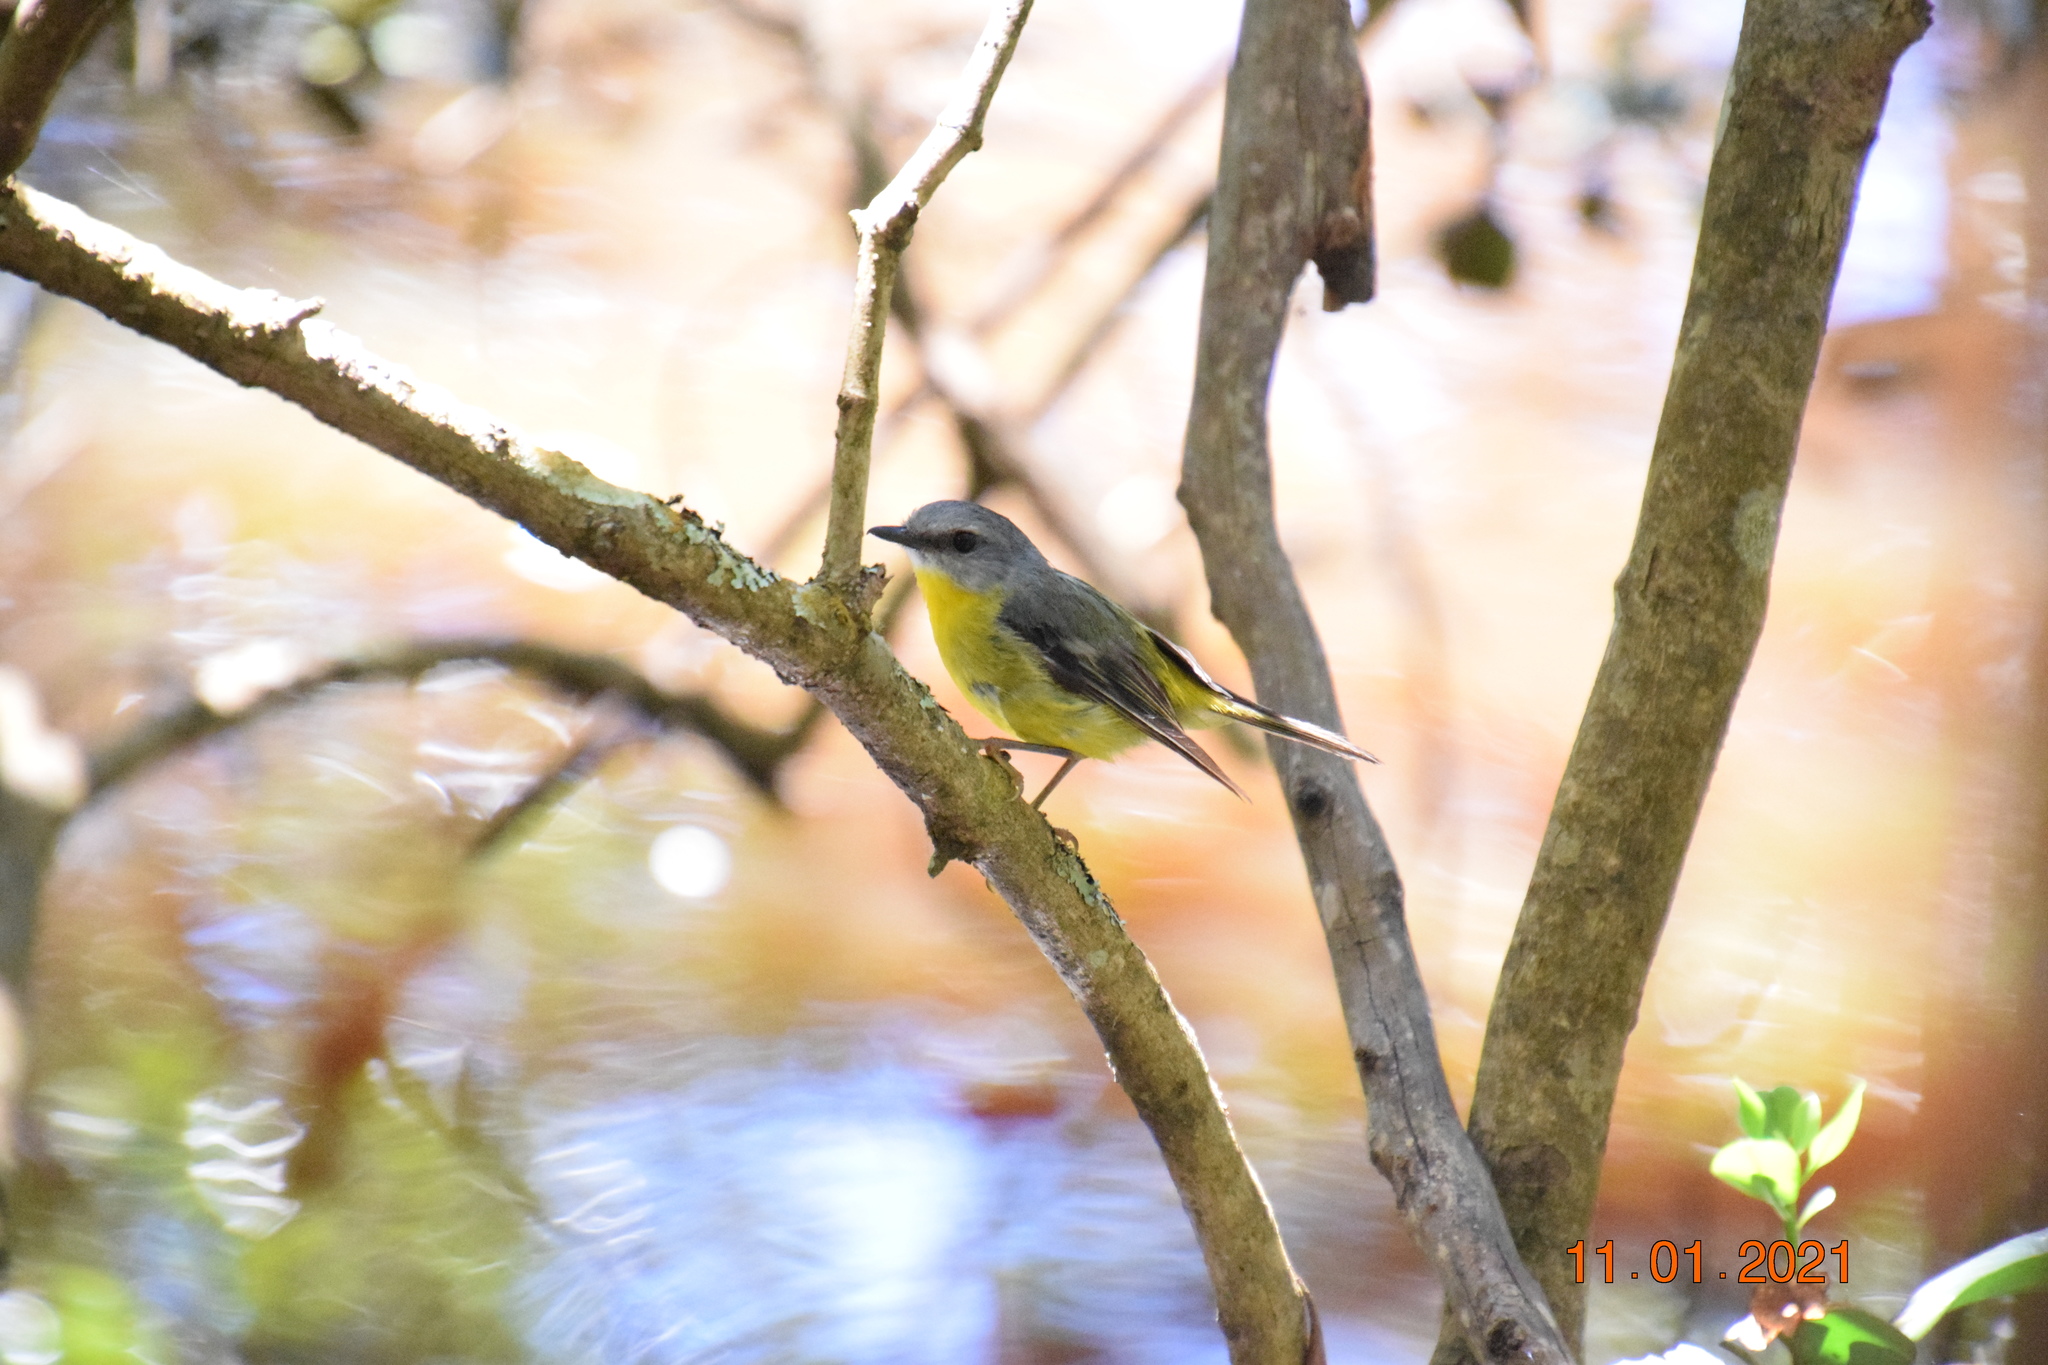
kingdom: Animalia
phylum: Chordata
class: Aves
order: Passeriformes
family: Petroicidae
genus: Eopsaltria
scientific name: Eopsaltria australis
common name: Eastern yellow robin
